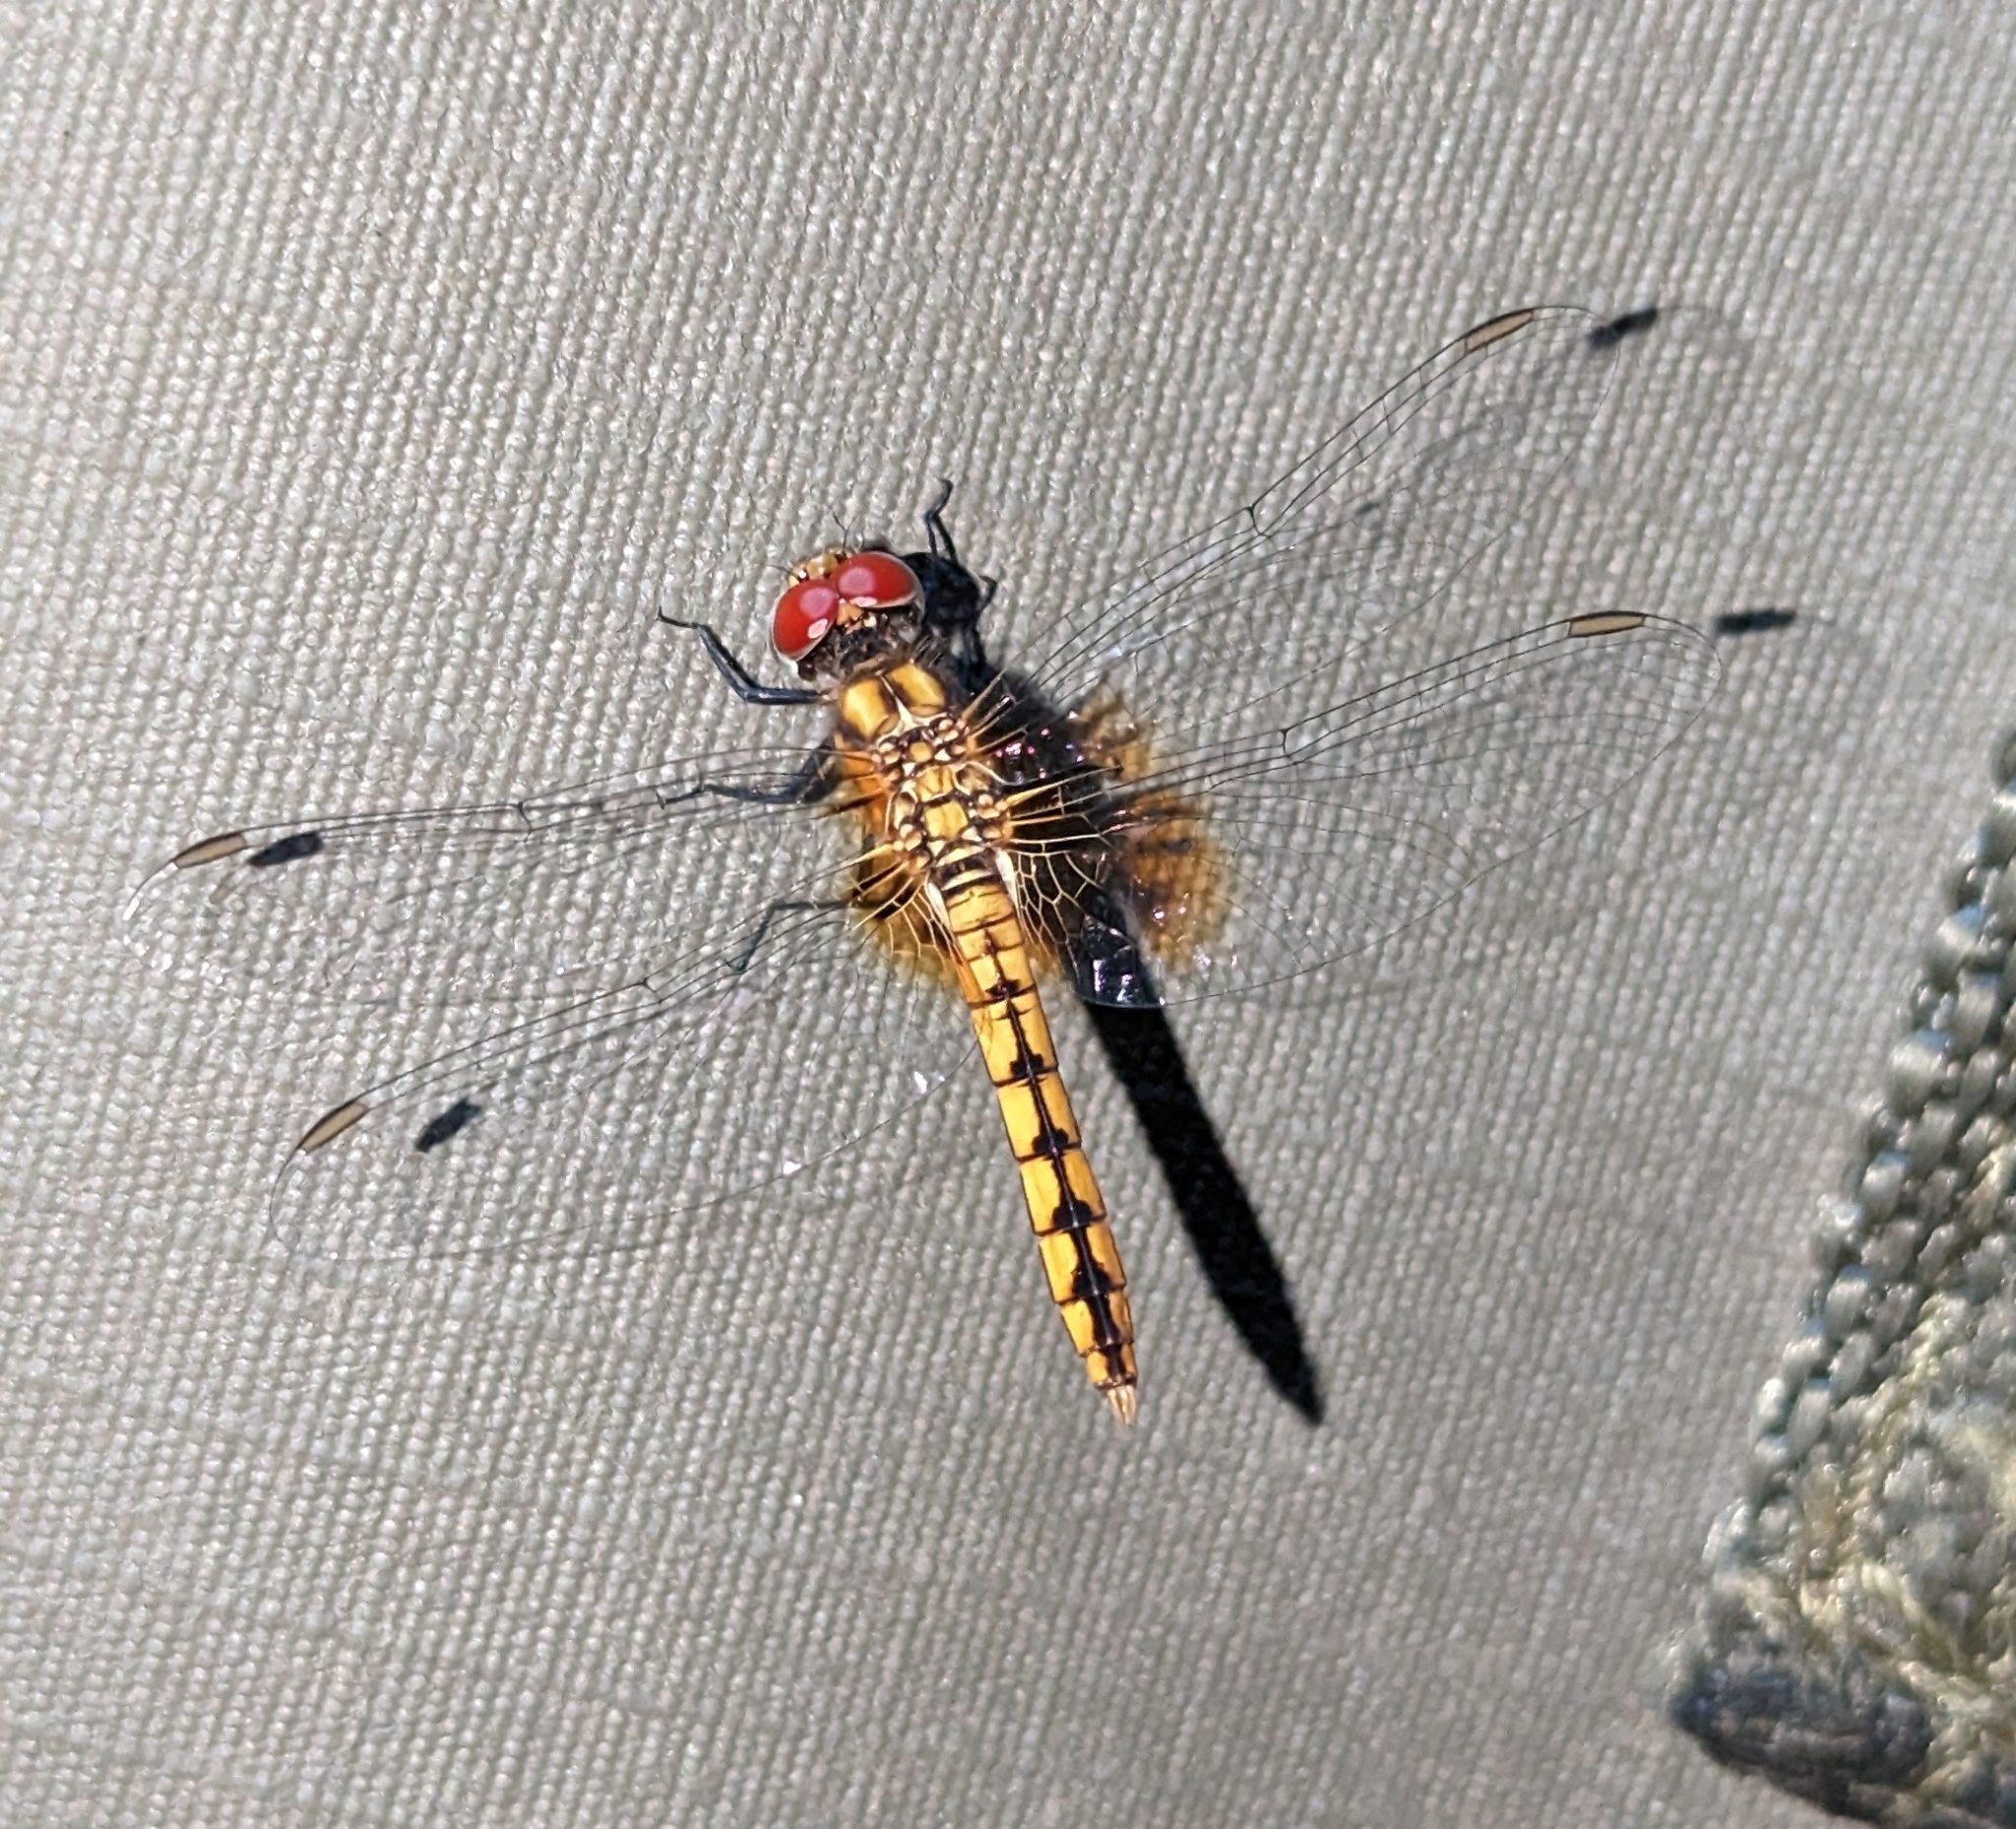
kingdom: Animalia
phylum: Arthropoda
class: Insecta
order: Odonata
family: Libellulidae
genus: Aethriamanta
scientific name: Aethriamanta rezia
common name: Pygmy basker
